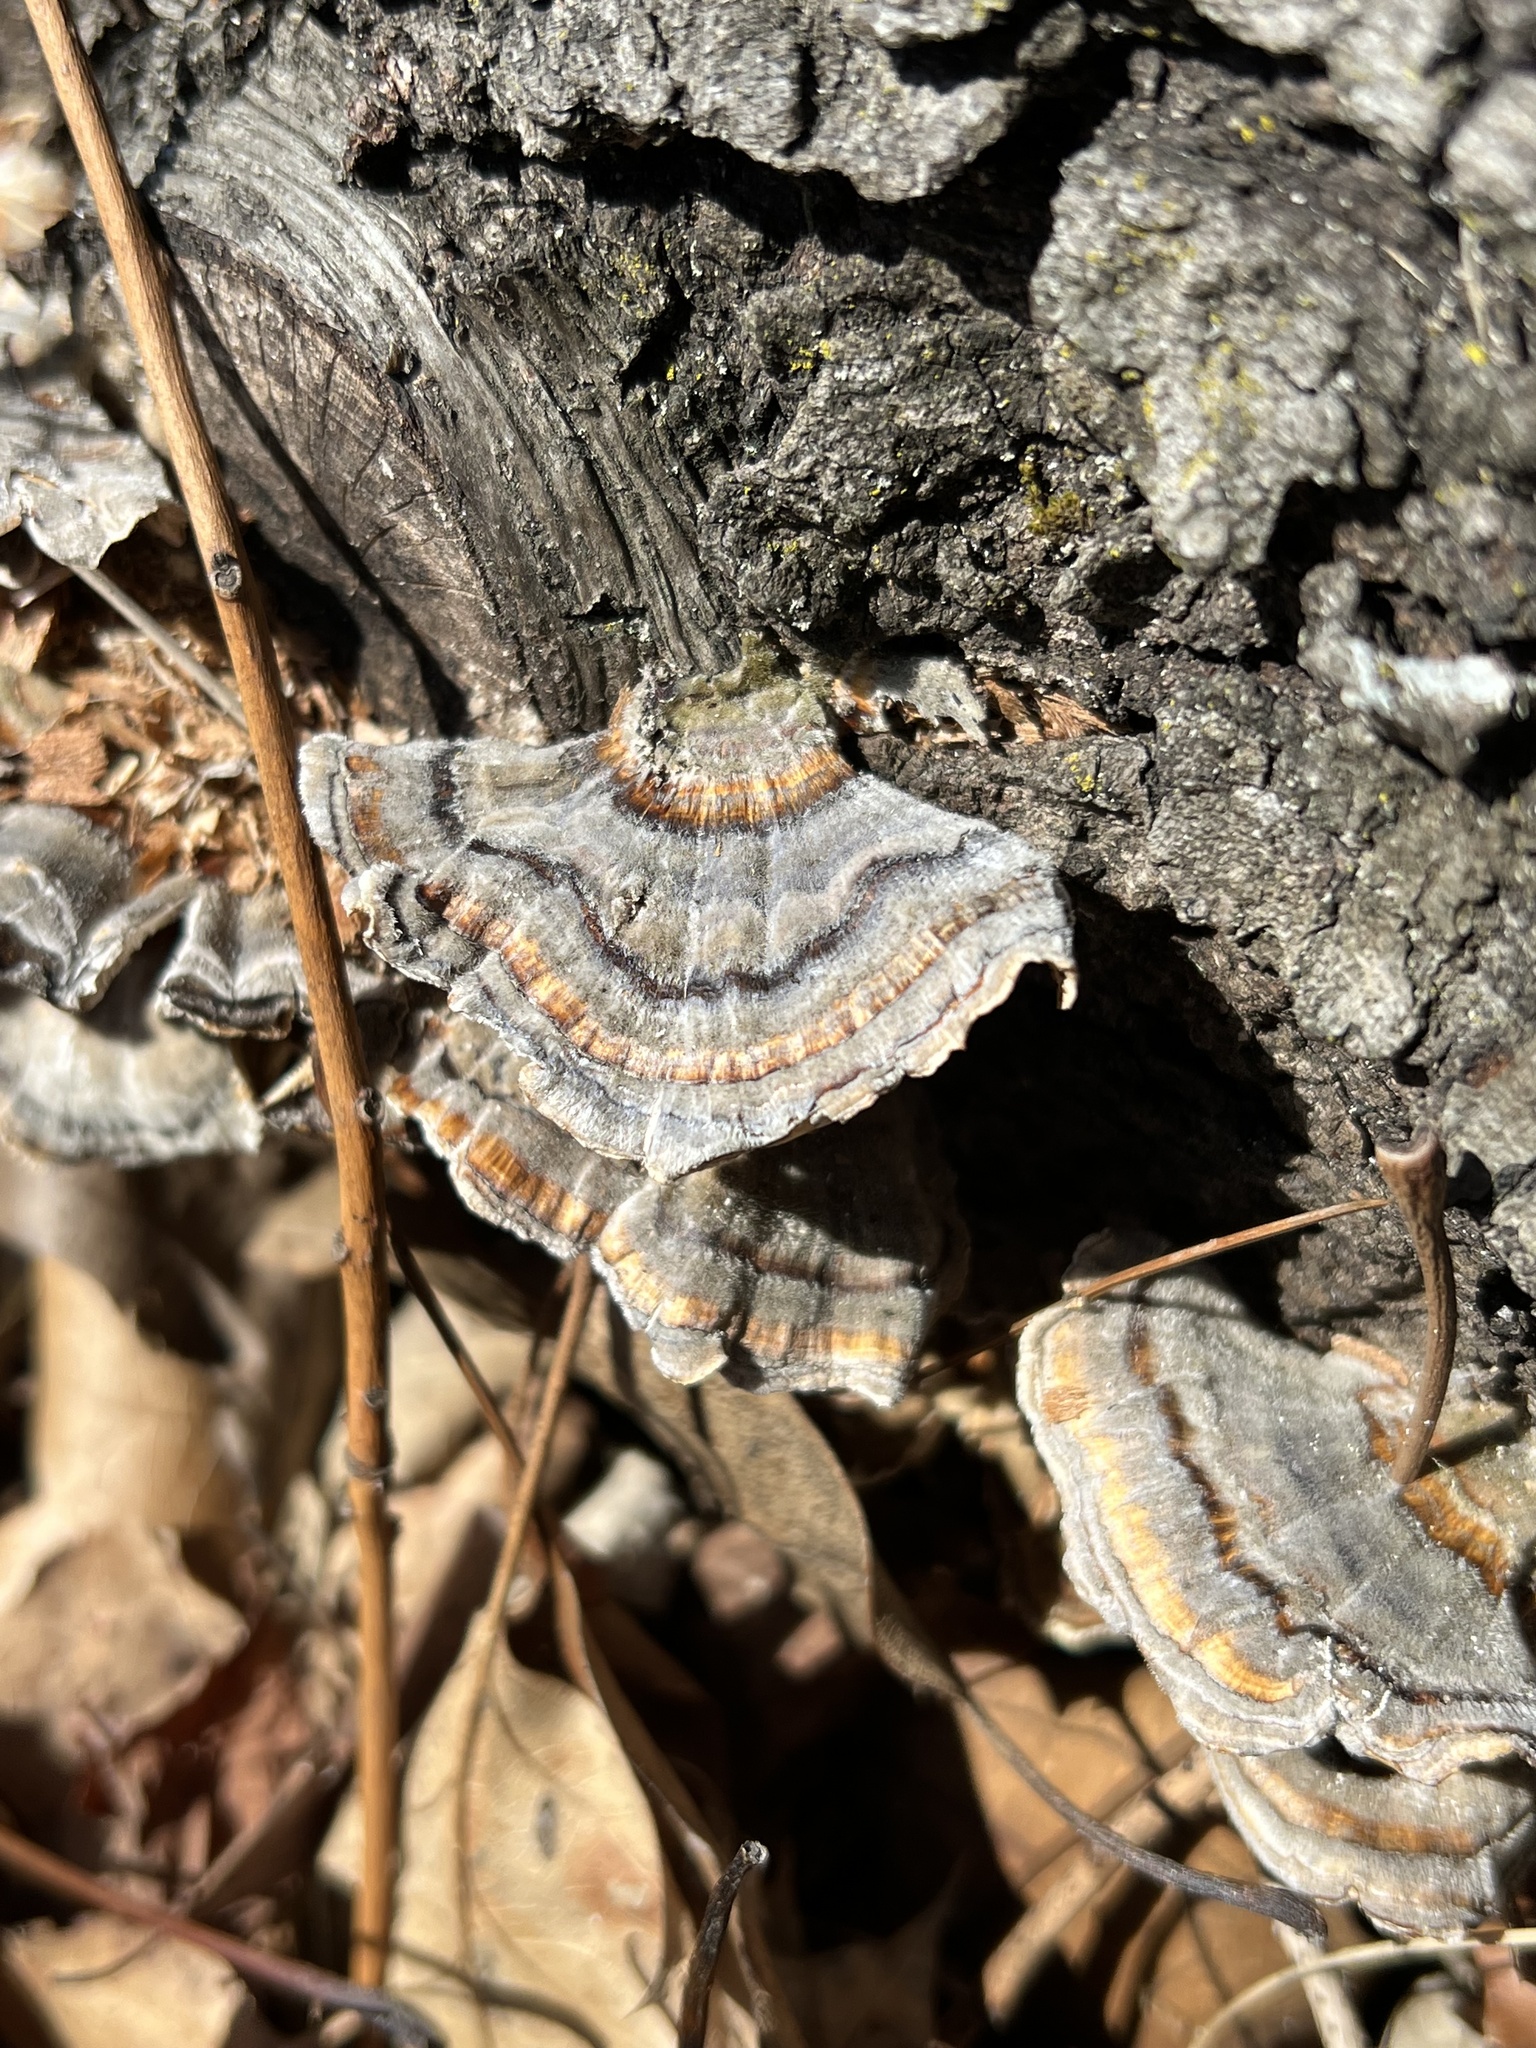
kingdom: Fungi
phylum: Basidiomycota
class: Agaricomycetes
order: Polyporales
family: Polyporaceae
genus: Trametes
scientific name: Trametes versicolor
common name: Turkeytail
